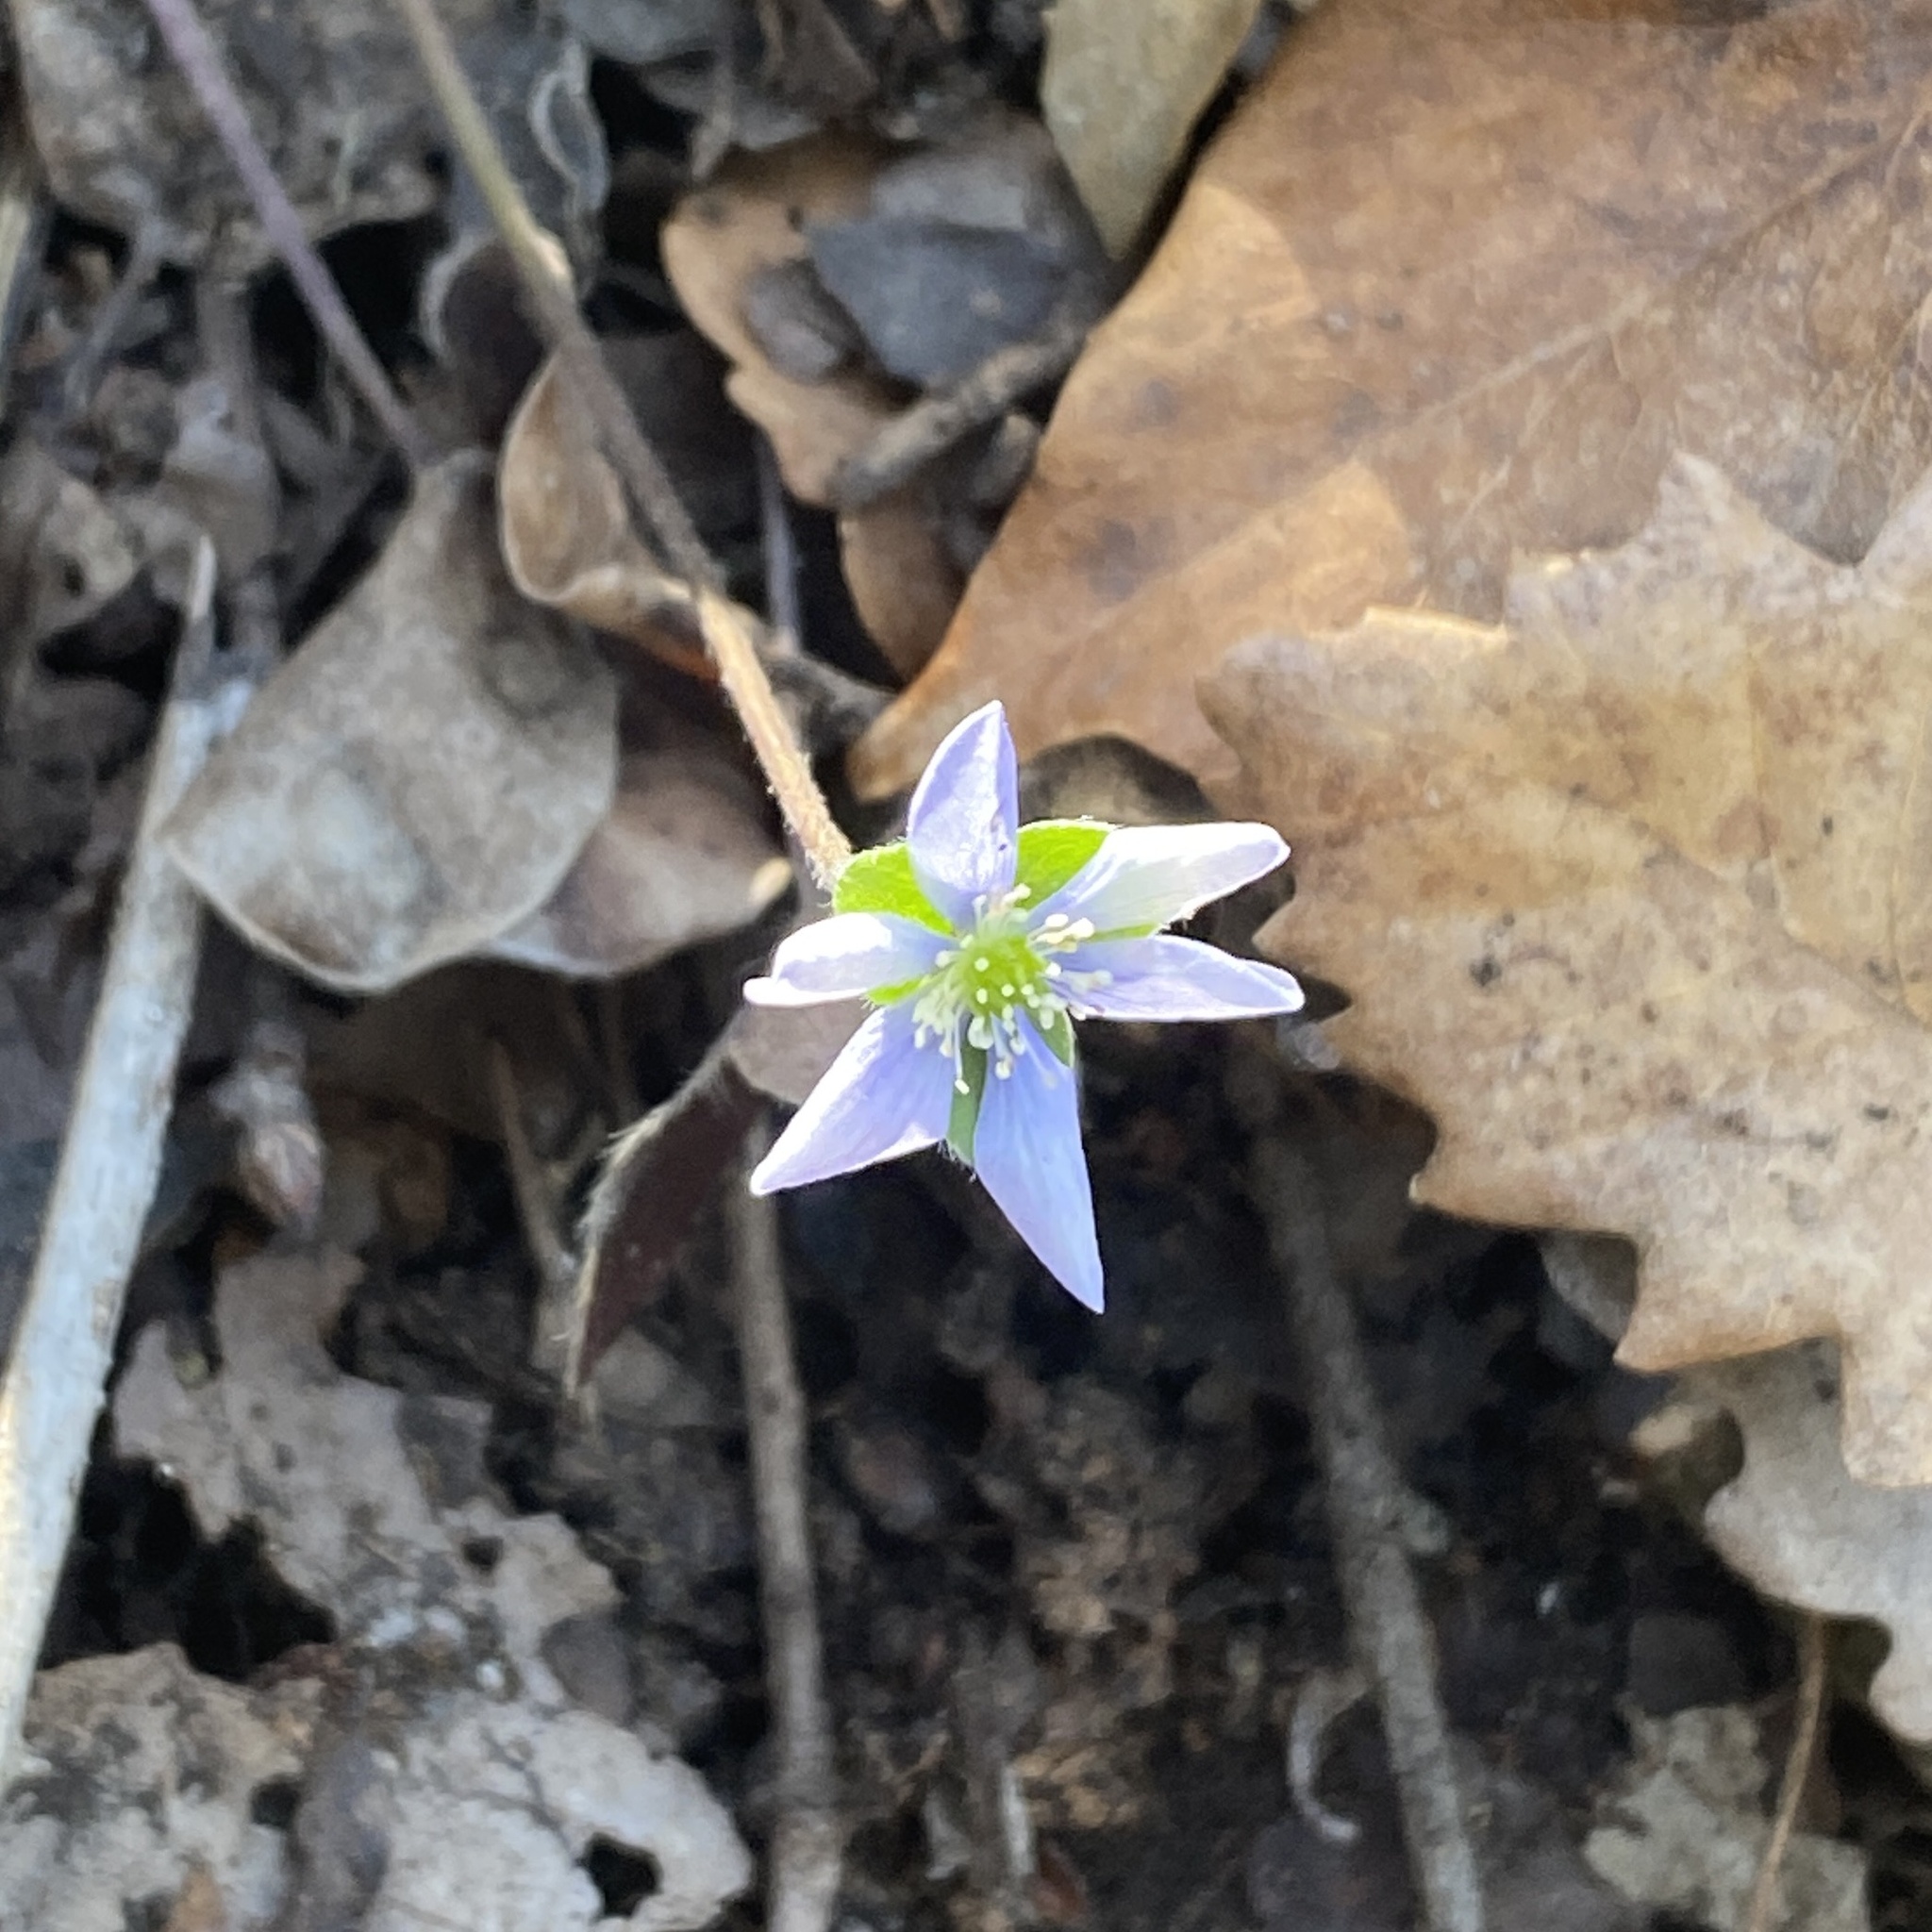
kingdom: Plantae
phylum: Tracheophyta
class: Magnoliopsida
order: Ranunculales
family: Ranunculaceae
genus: Hepatica
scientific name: Hepatica nobilis
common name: Liverleaf
